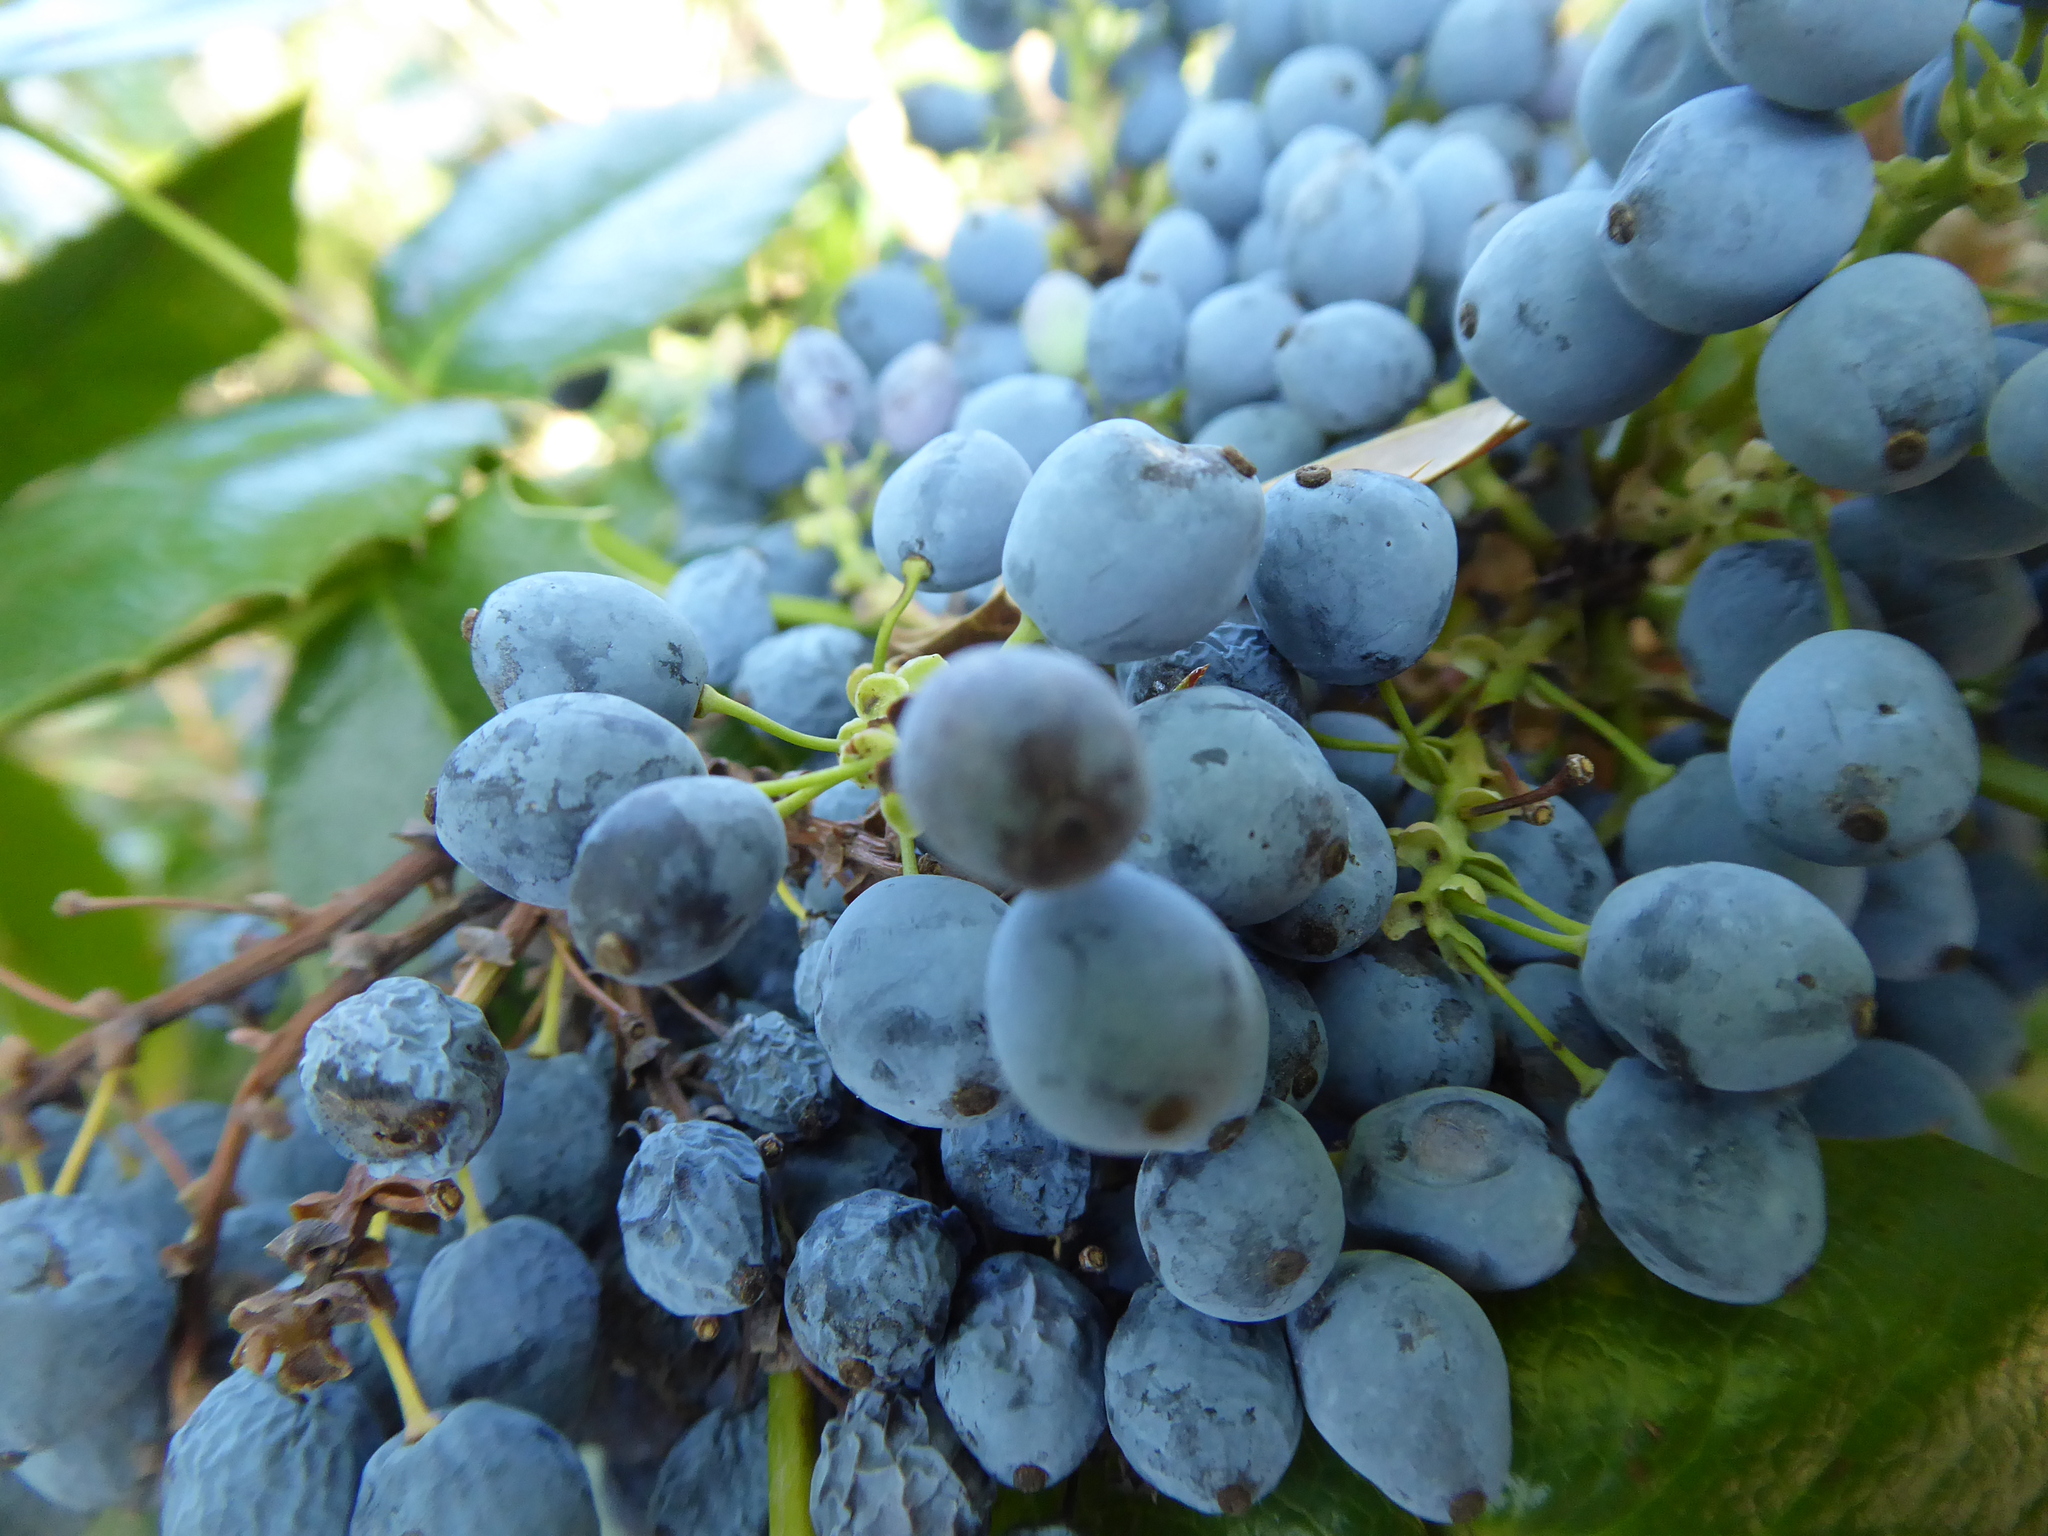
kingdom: Plantae
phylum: Tracheophyta
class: Magnoliopsida
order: Ranunculales
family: Berberidaceae
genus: Mahonia
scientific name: Mahonia aquifolium
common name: Oregon-grape
